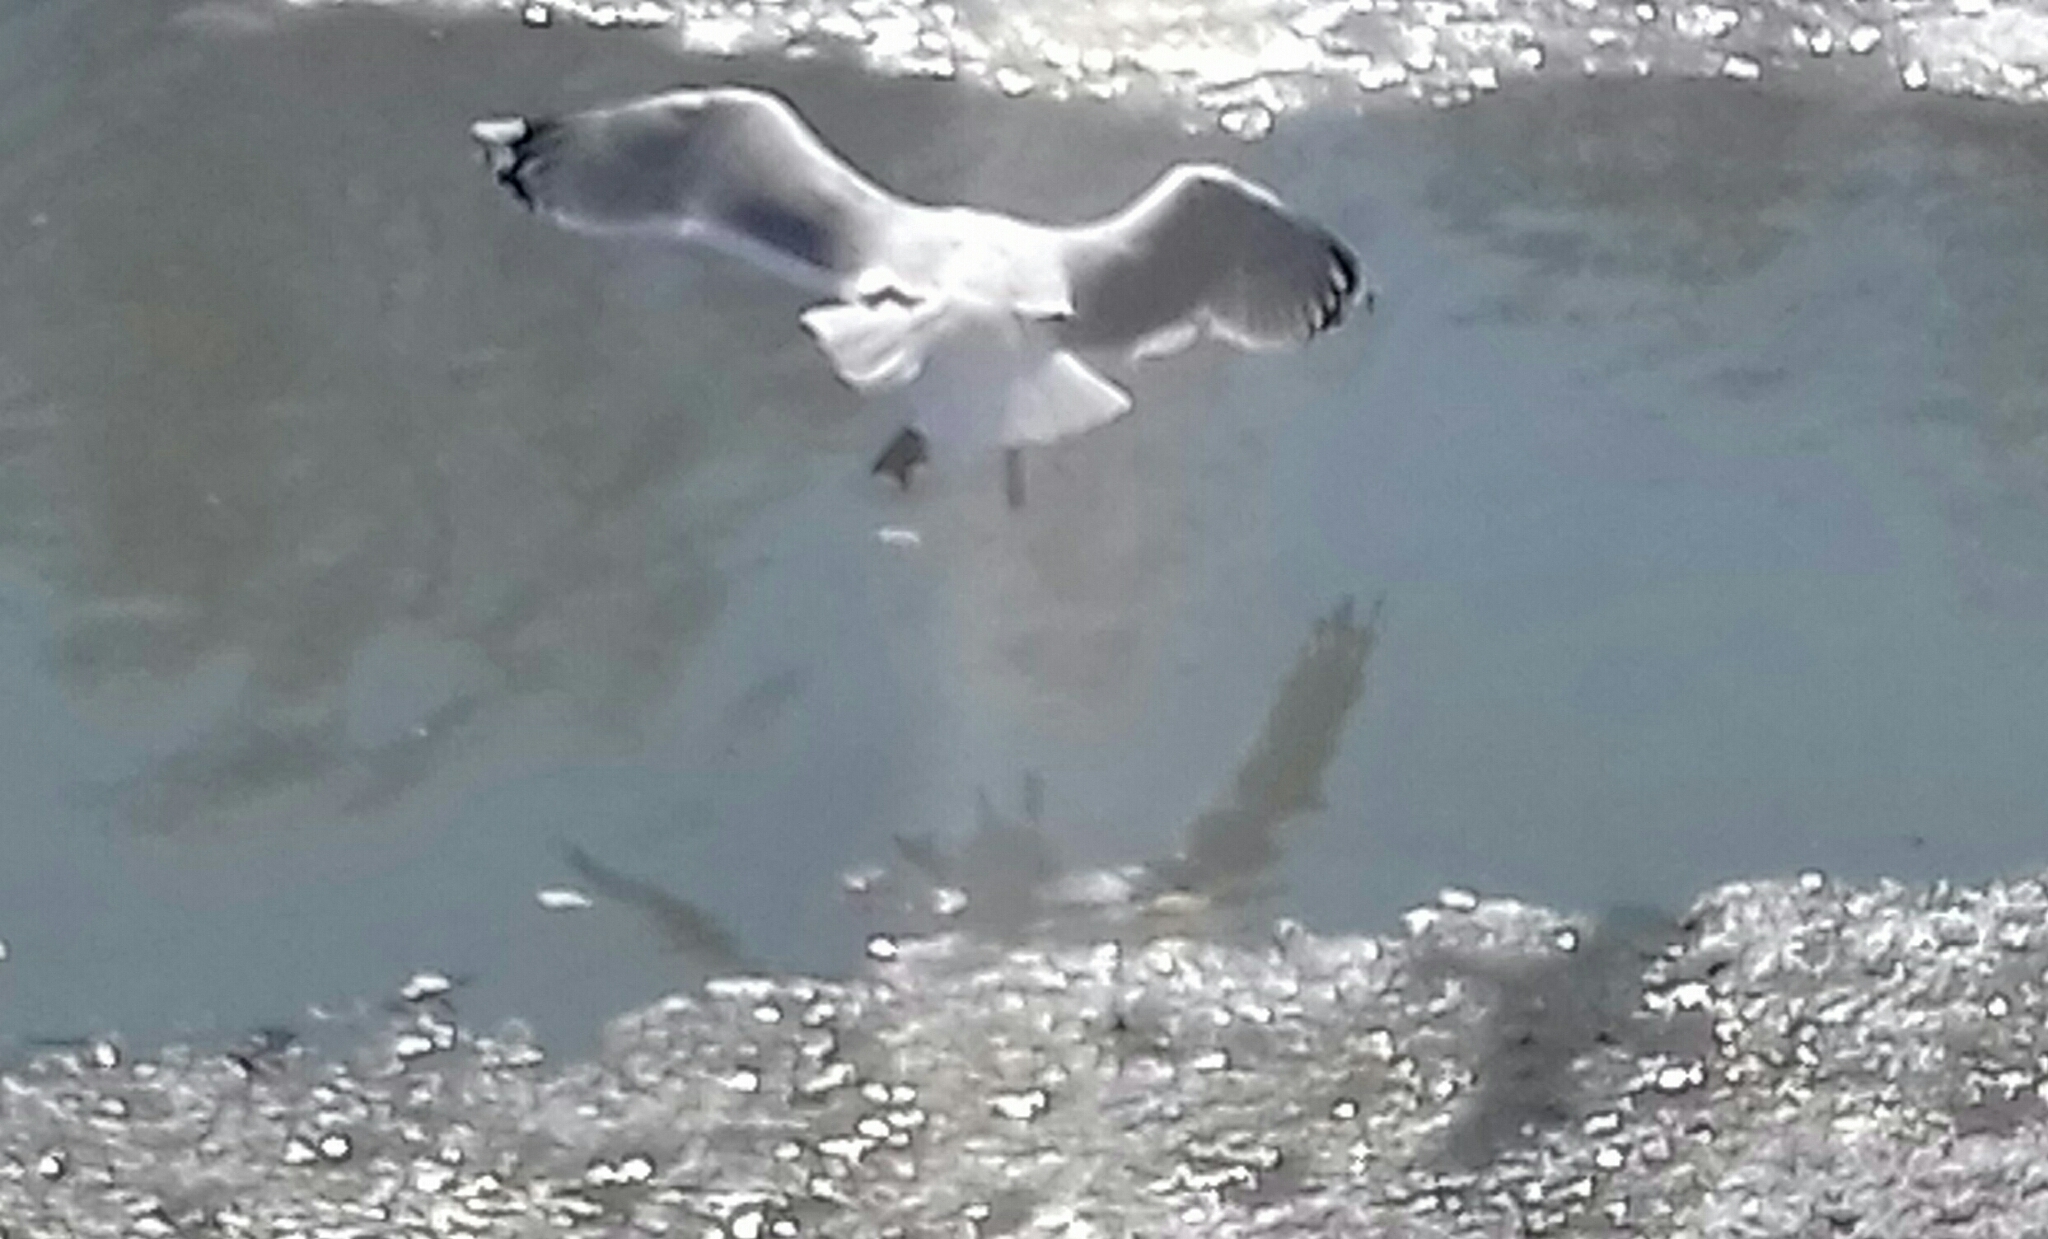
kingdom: Animalia
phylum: Chordata
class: Aves
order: Charadriiformes
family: Laridae
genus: Larus
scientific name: Larus argentatus
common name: Herring gull
